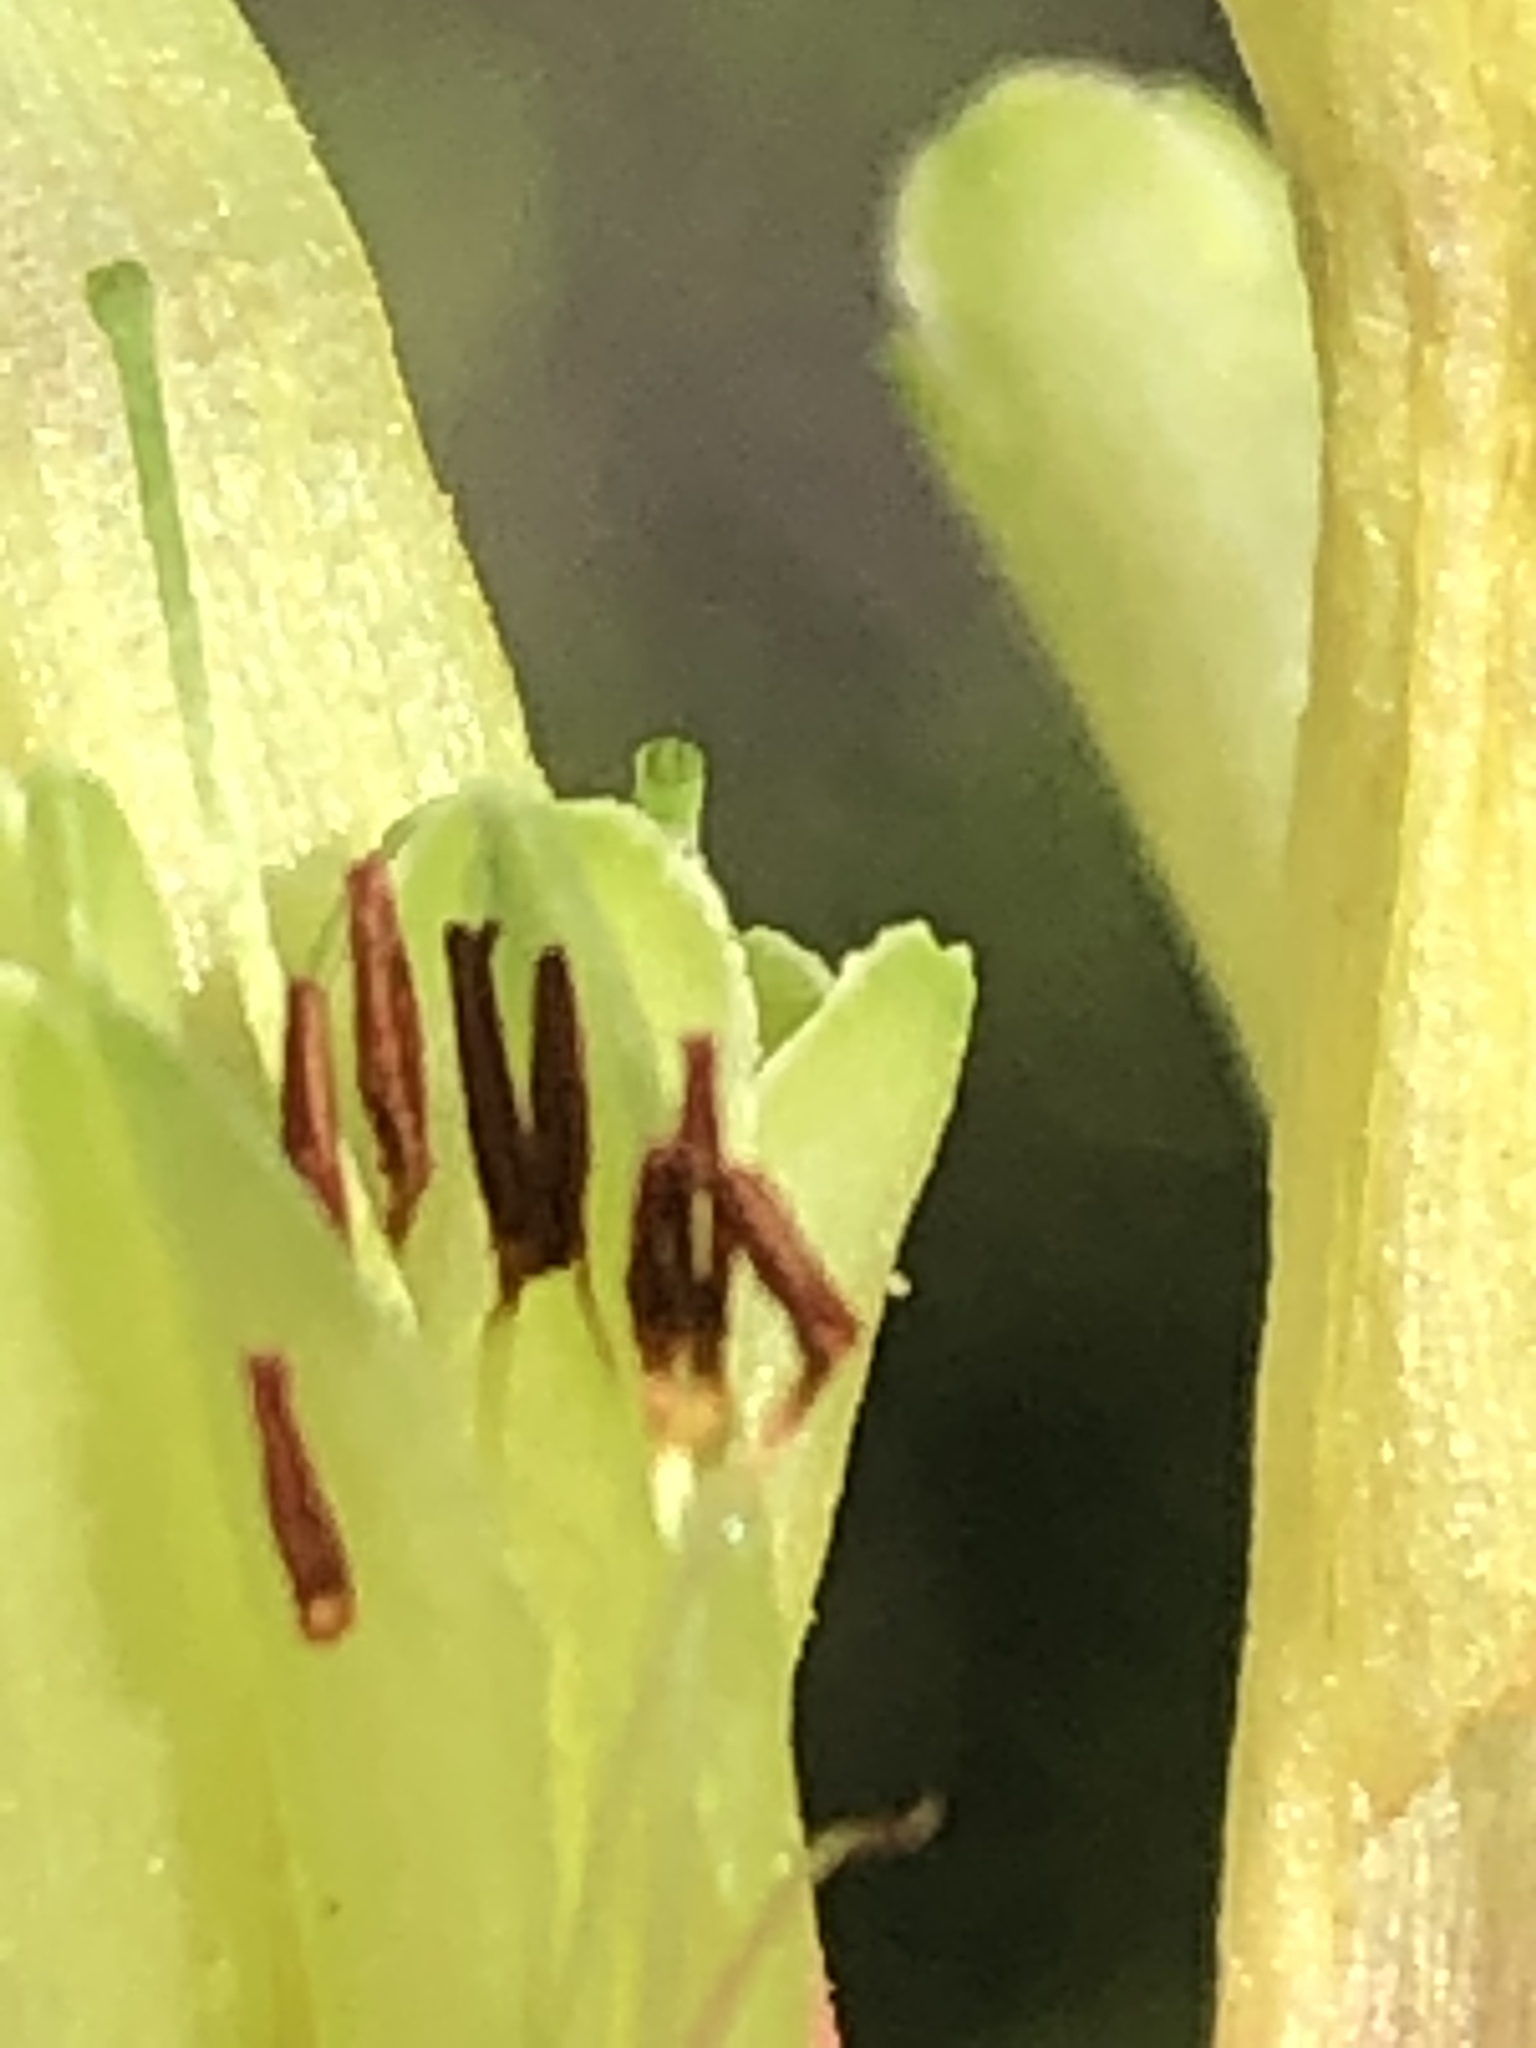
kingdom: Plantae
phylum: Tracheophyta
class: Magnoliopsida
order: Ericales
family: Ericaceae
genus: Erica
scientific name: Erica unicolor
